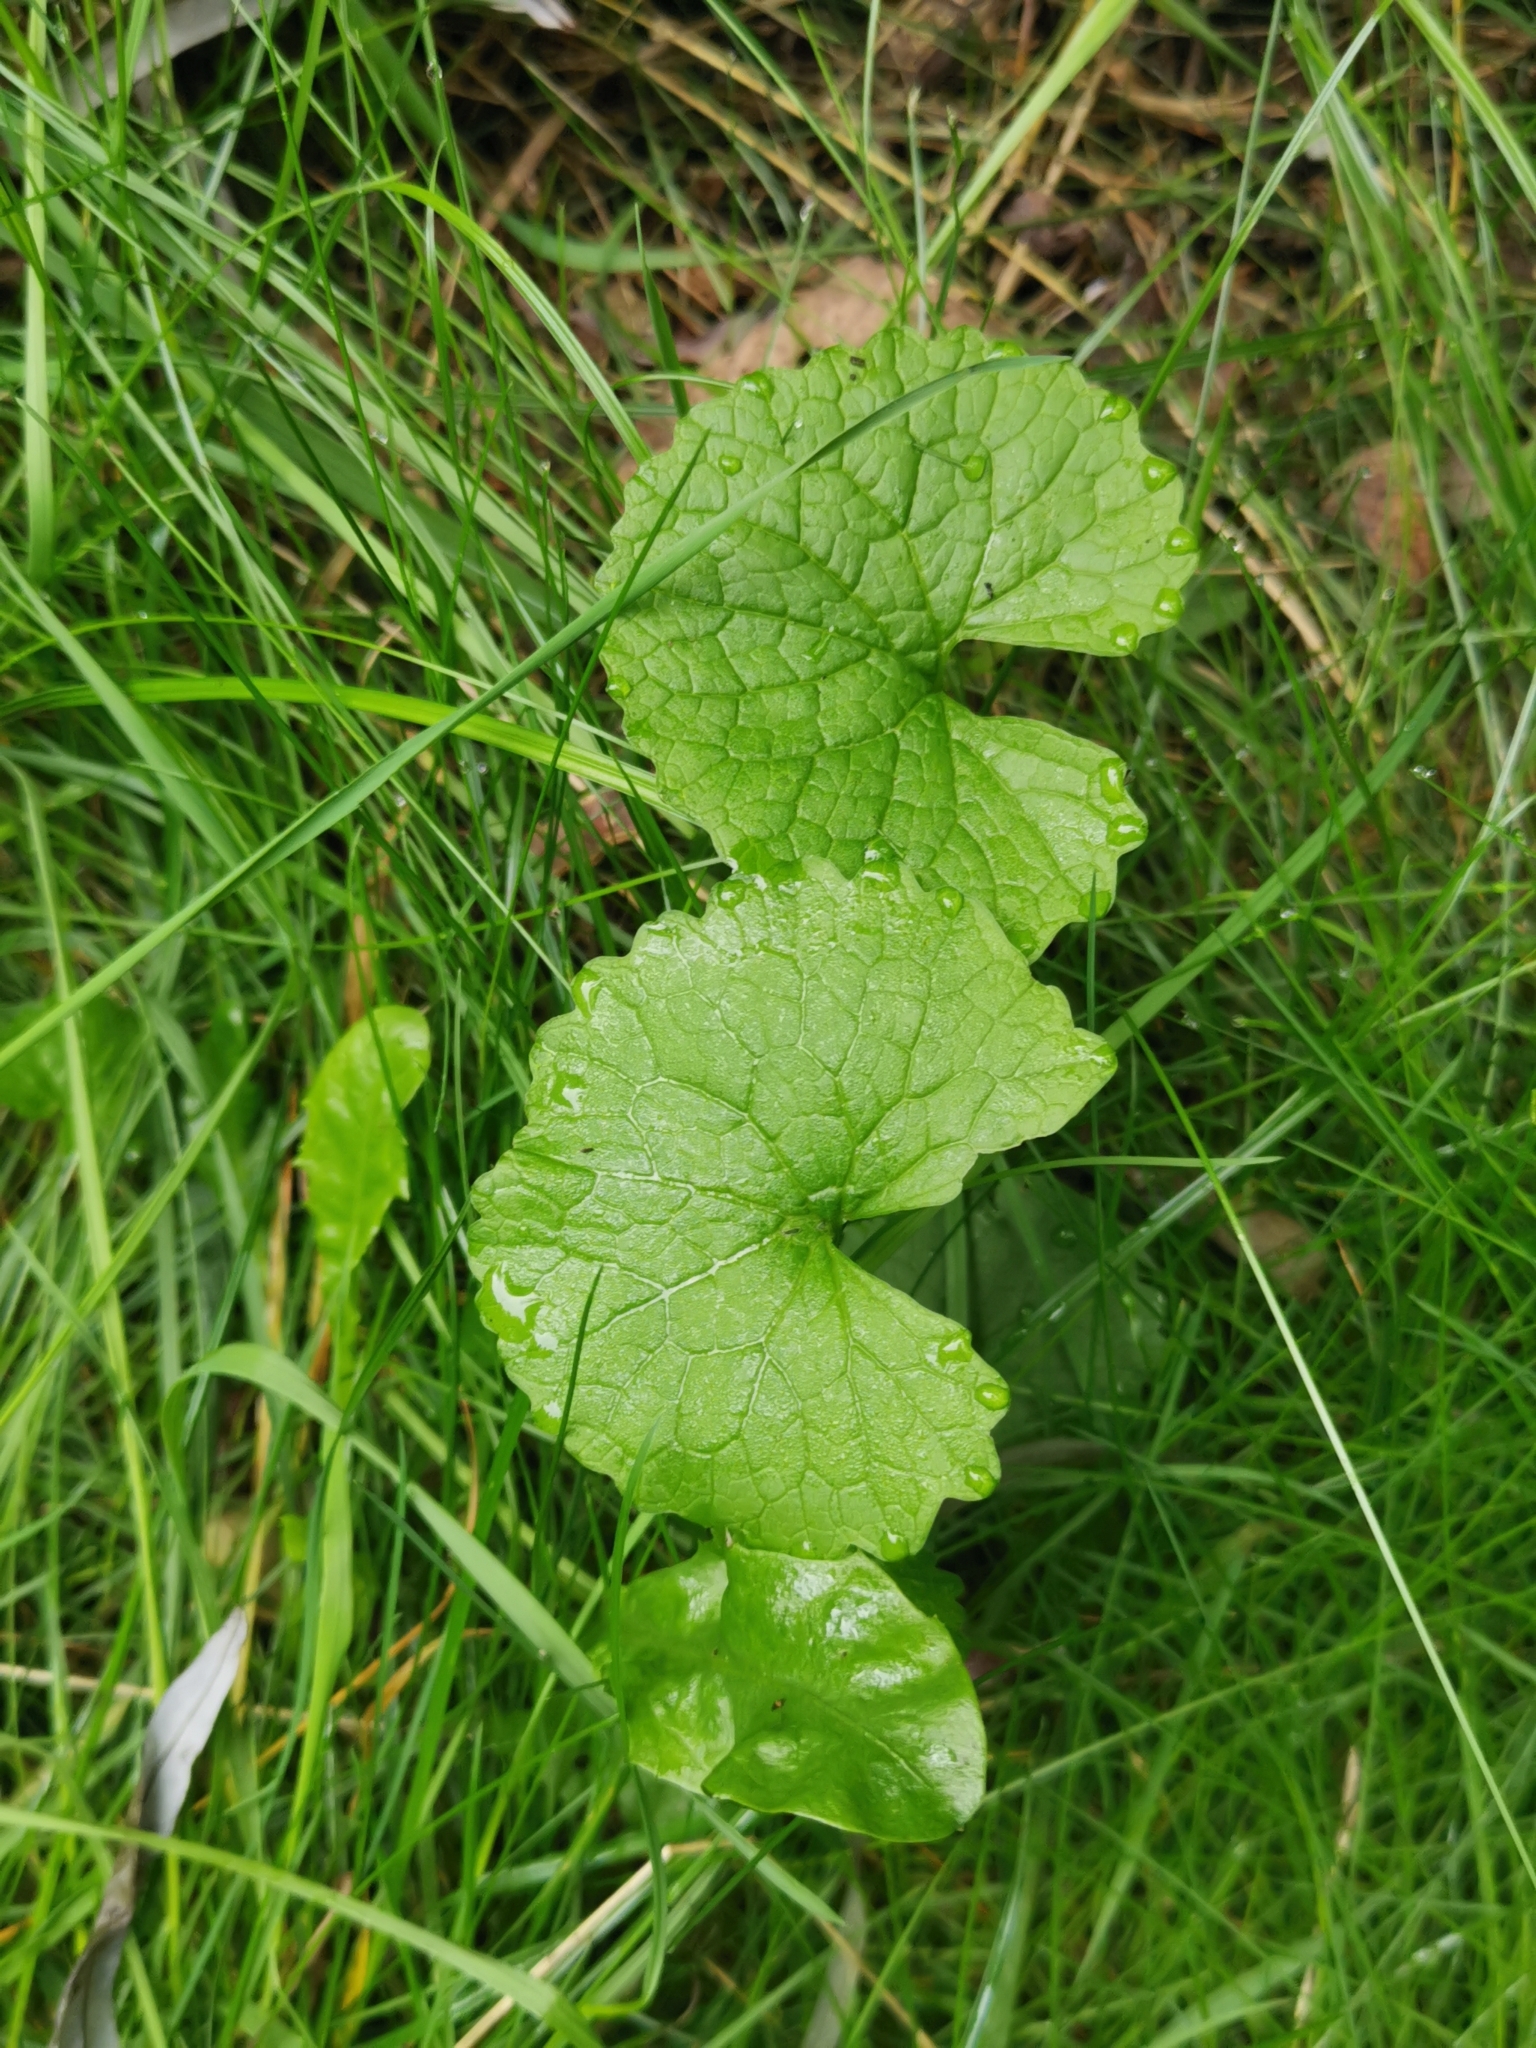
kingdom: Plantae
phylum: Tracheophyta
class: Magnoliopsida
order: Brassicales
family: Brassicaceae
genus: Alliaria
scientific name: Alliaria petiolata
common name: Garlic mustard
